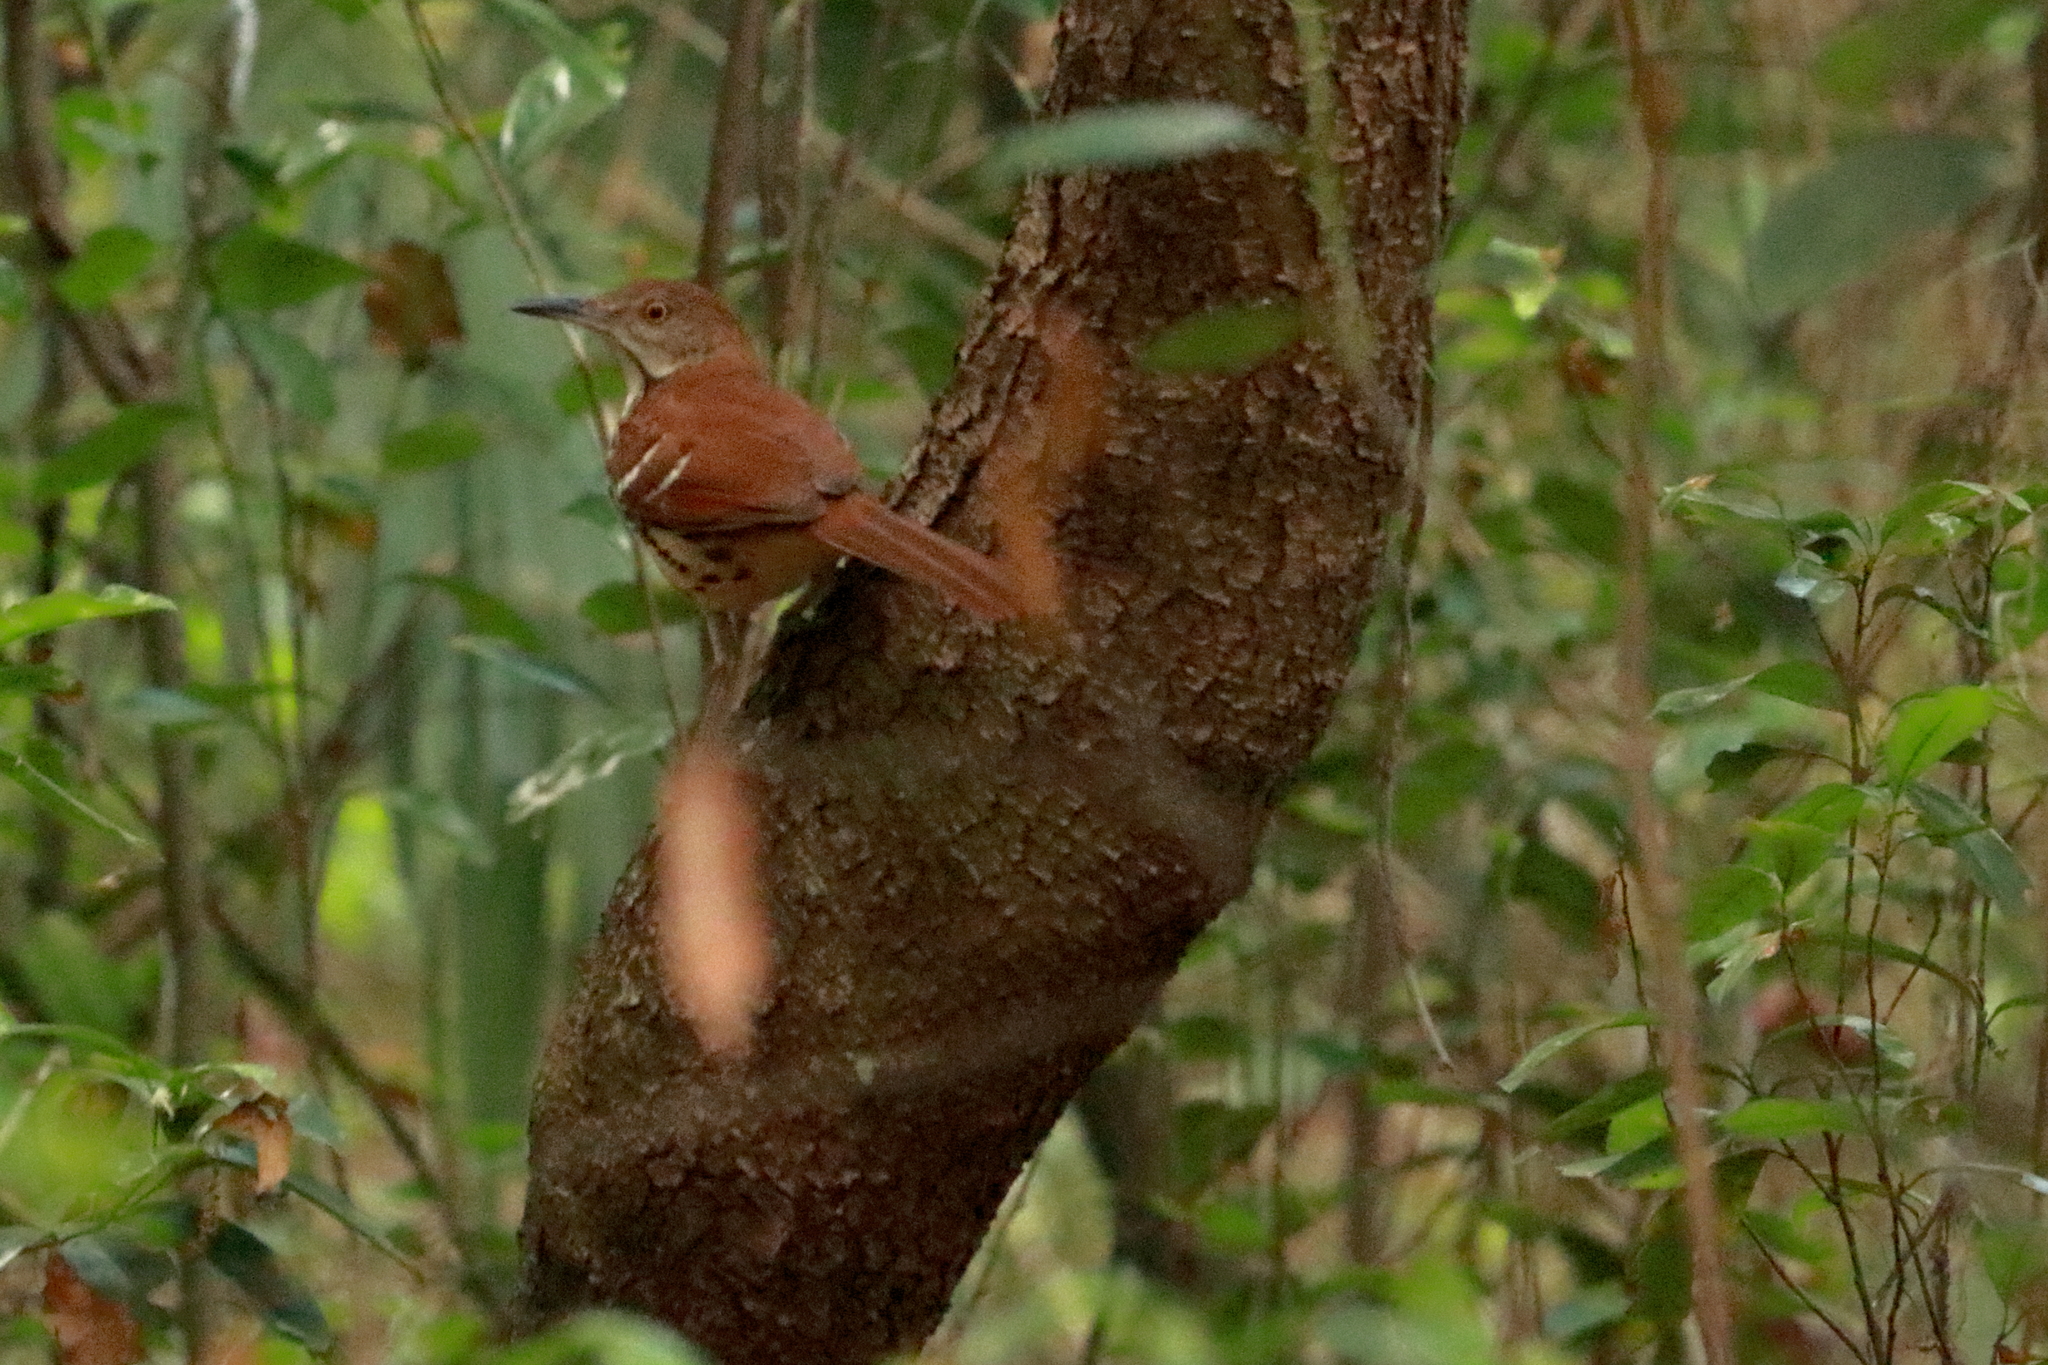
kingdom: Animalia
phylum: Chordata
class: Aves
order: Passeriformes
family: Mimidae
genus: Toxostoma
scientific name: Toxostoma rufum
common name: Brown thrasher
